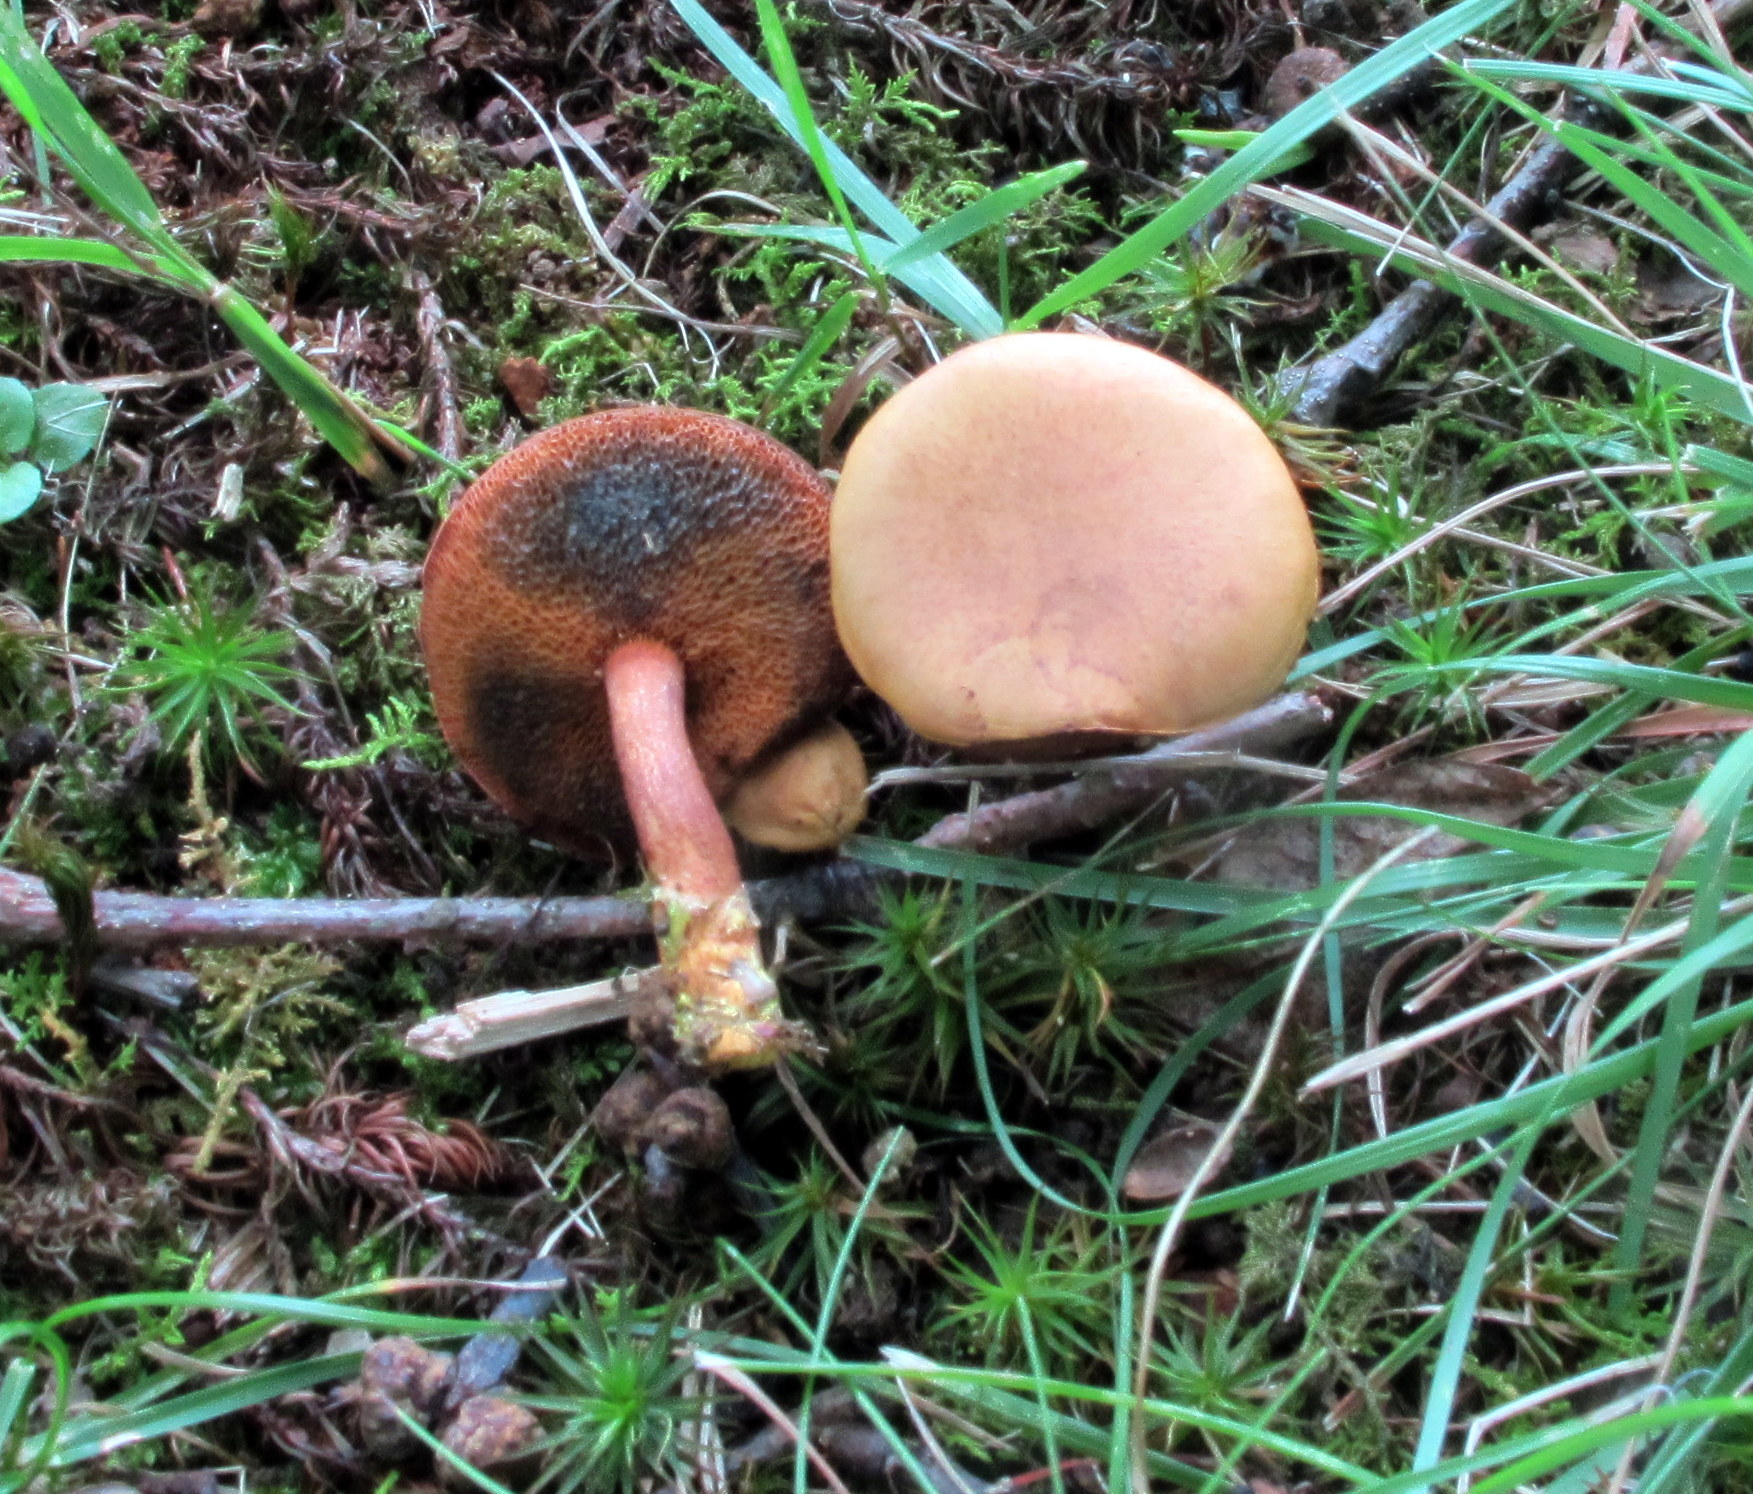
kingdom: Fungi
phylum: Basidiomycota
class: Agaricomycetes
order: Boletales
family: Boletaceae
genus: Chalciporus
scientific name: Chalciporus piperatoides
